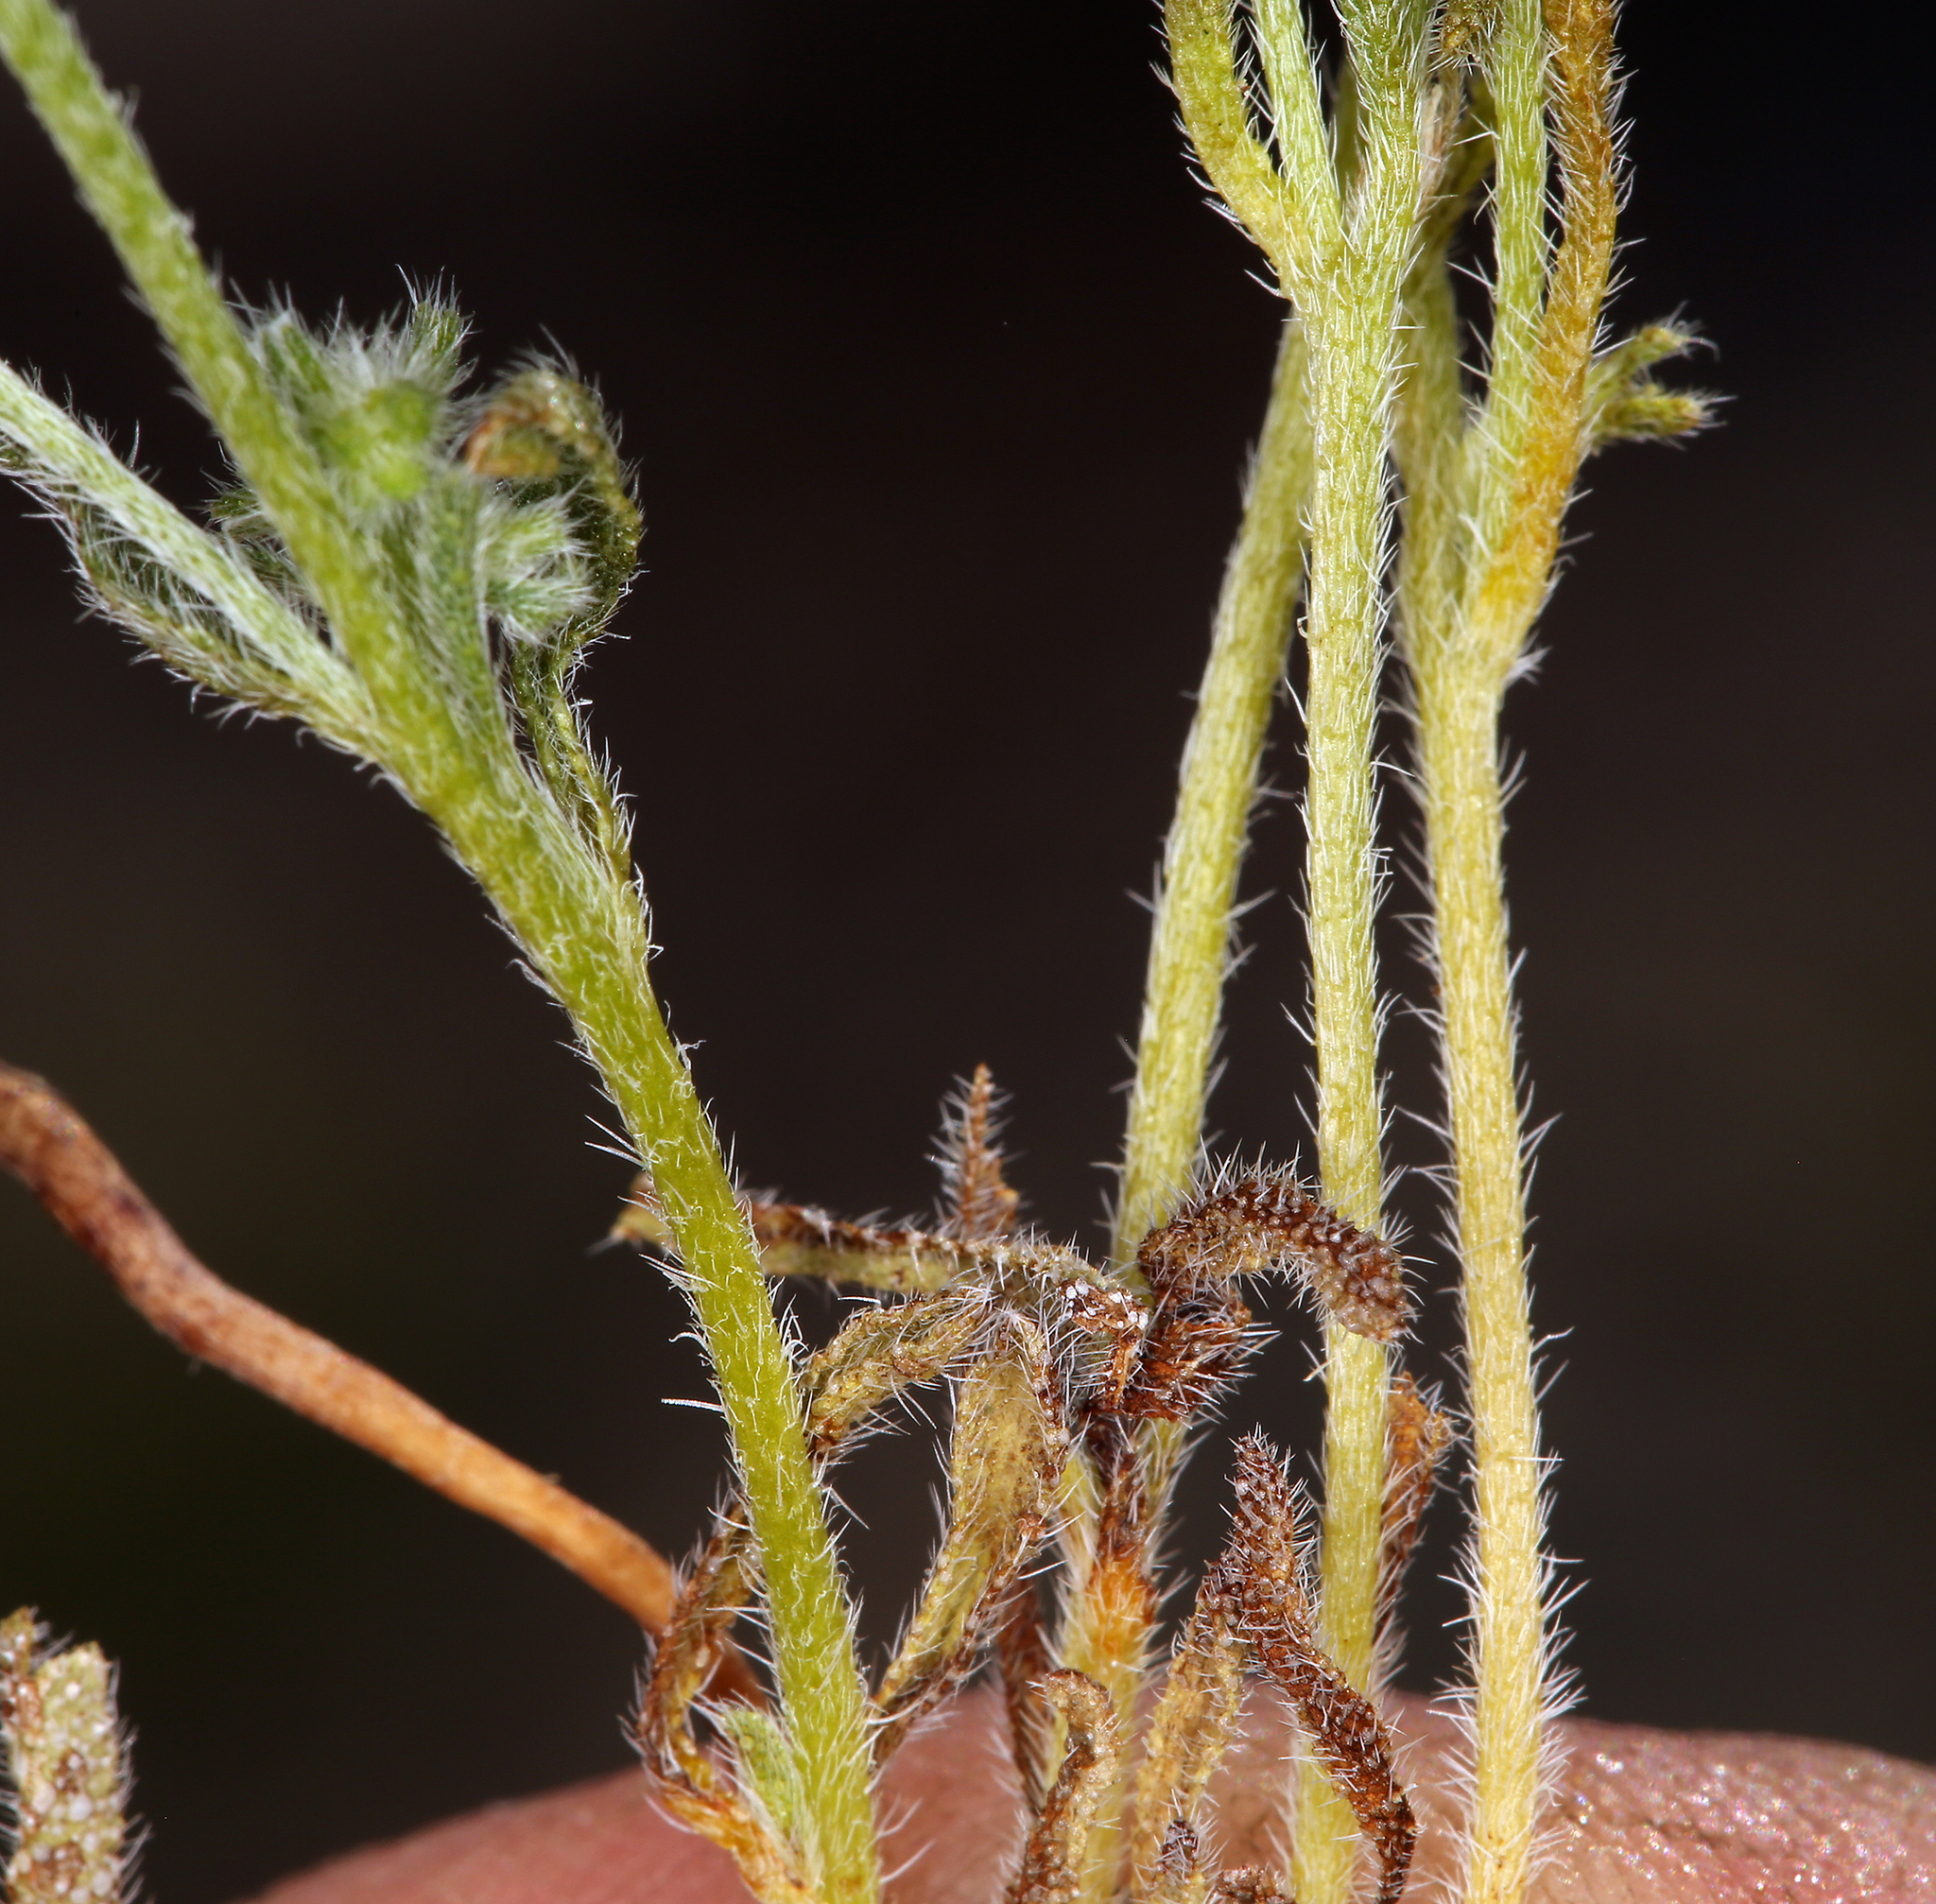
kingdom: Plantae
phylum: Tracheophyta
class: Magnoliopsida
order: Boraginales
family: Boraginaceae
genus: Cryptantha
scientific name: Cryptantha recurvata
